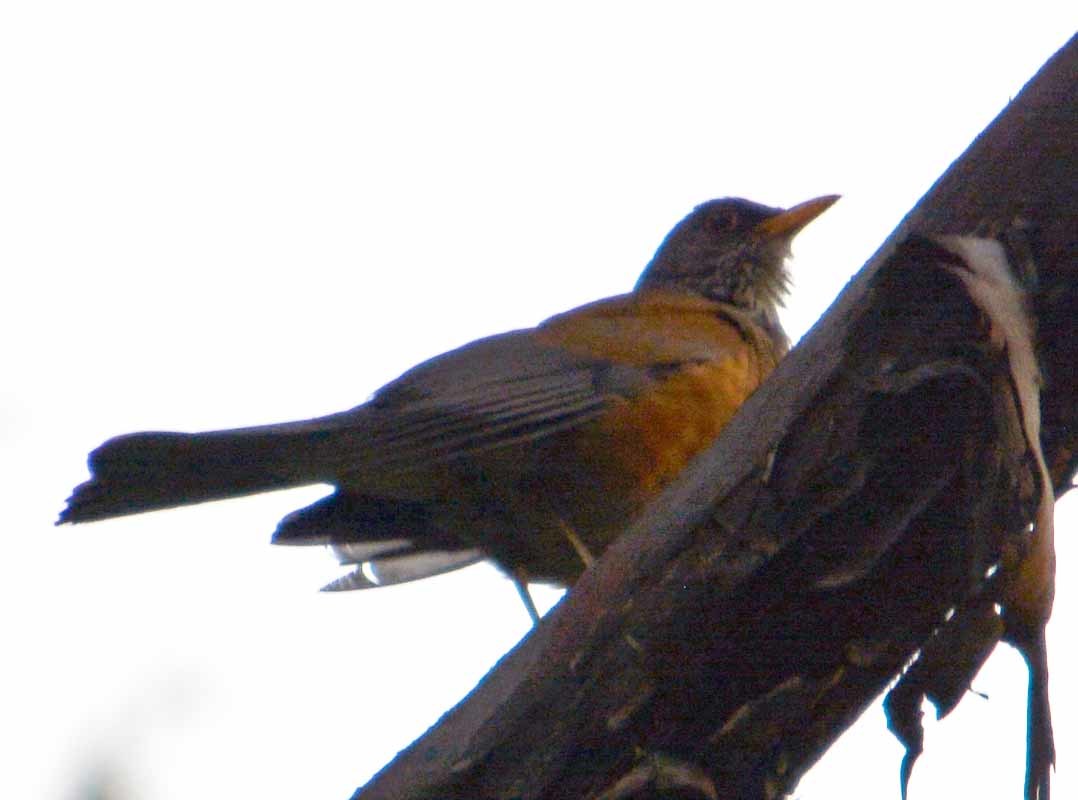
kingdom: Animalia
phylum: Chordata
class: Aves
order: Passeriformes
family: Turdidae
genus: Turdus
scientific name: Turdus rufopalliatus
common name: Rufous-backed robin
